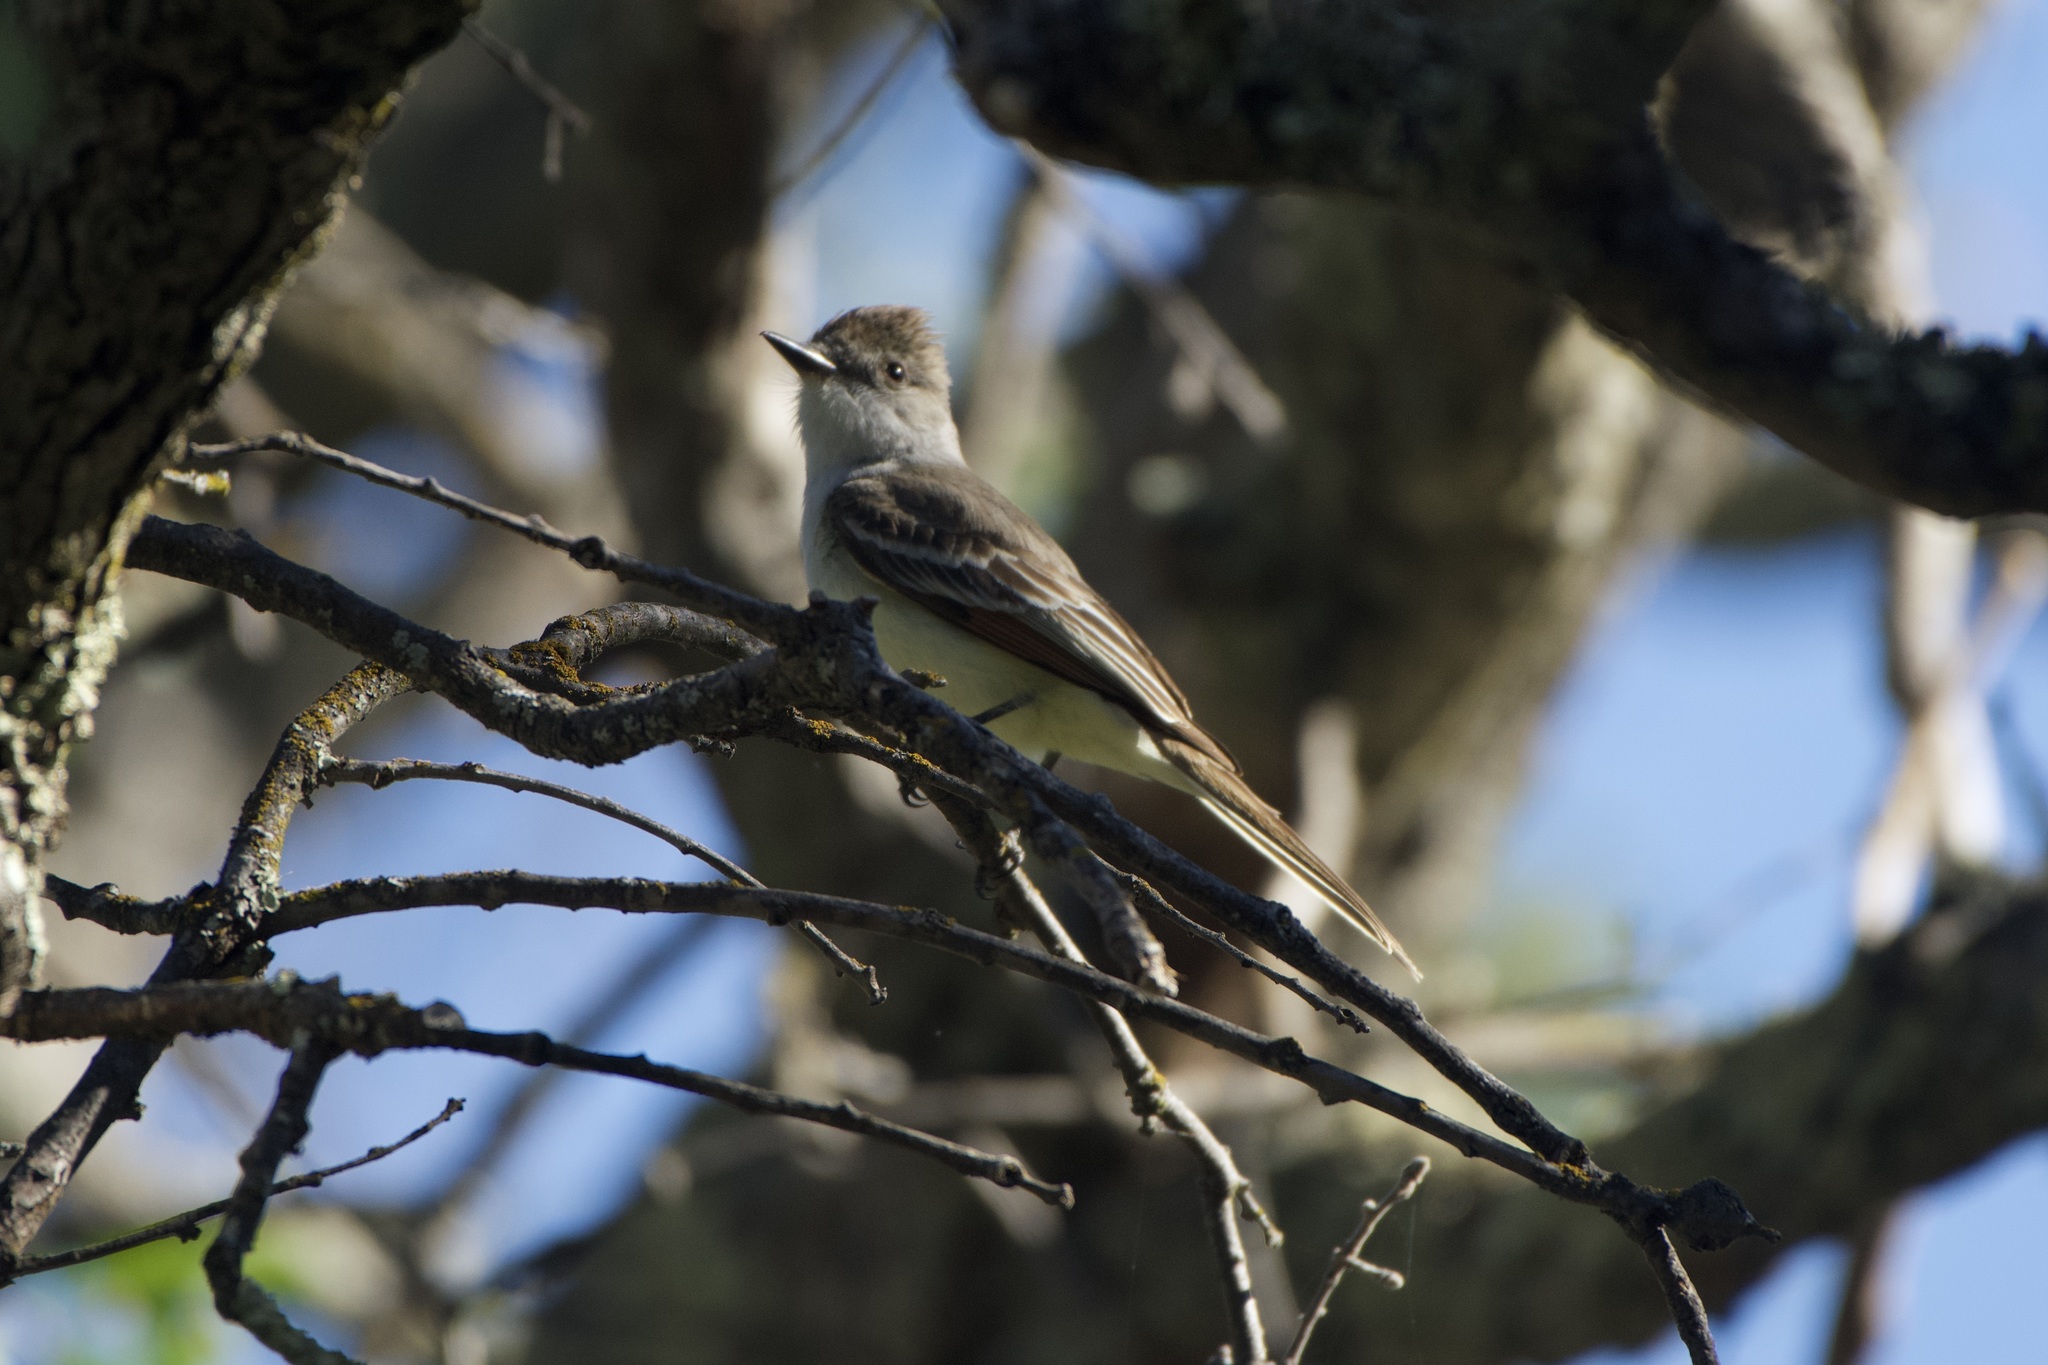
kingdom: Animalia
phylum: Chordata
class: Aves
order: Passeriformes
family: Tyrannidae
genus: Myiarchus
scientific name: Myiarchus cinerascens
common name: Ash-throated flycatcher
